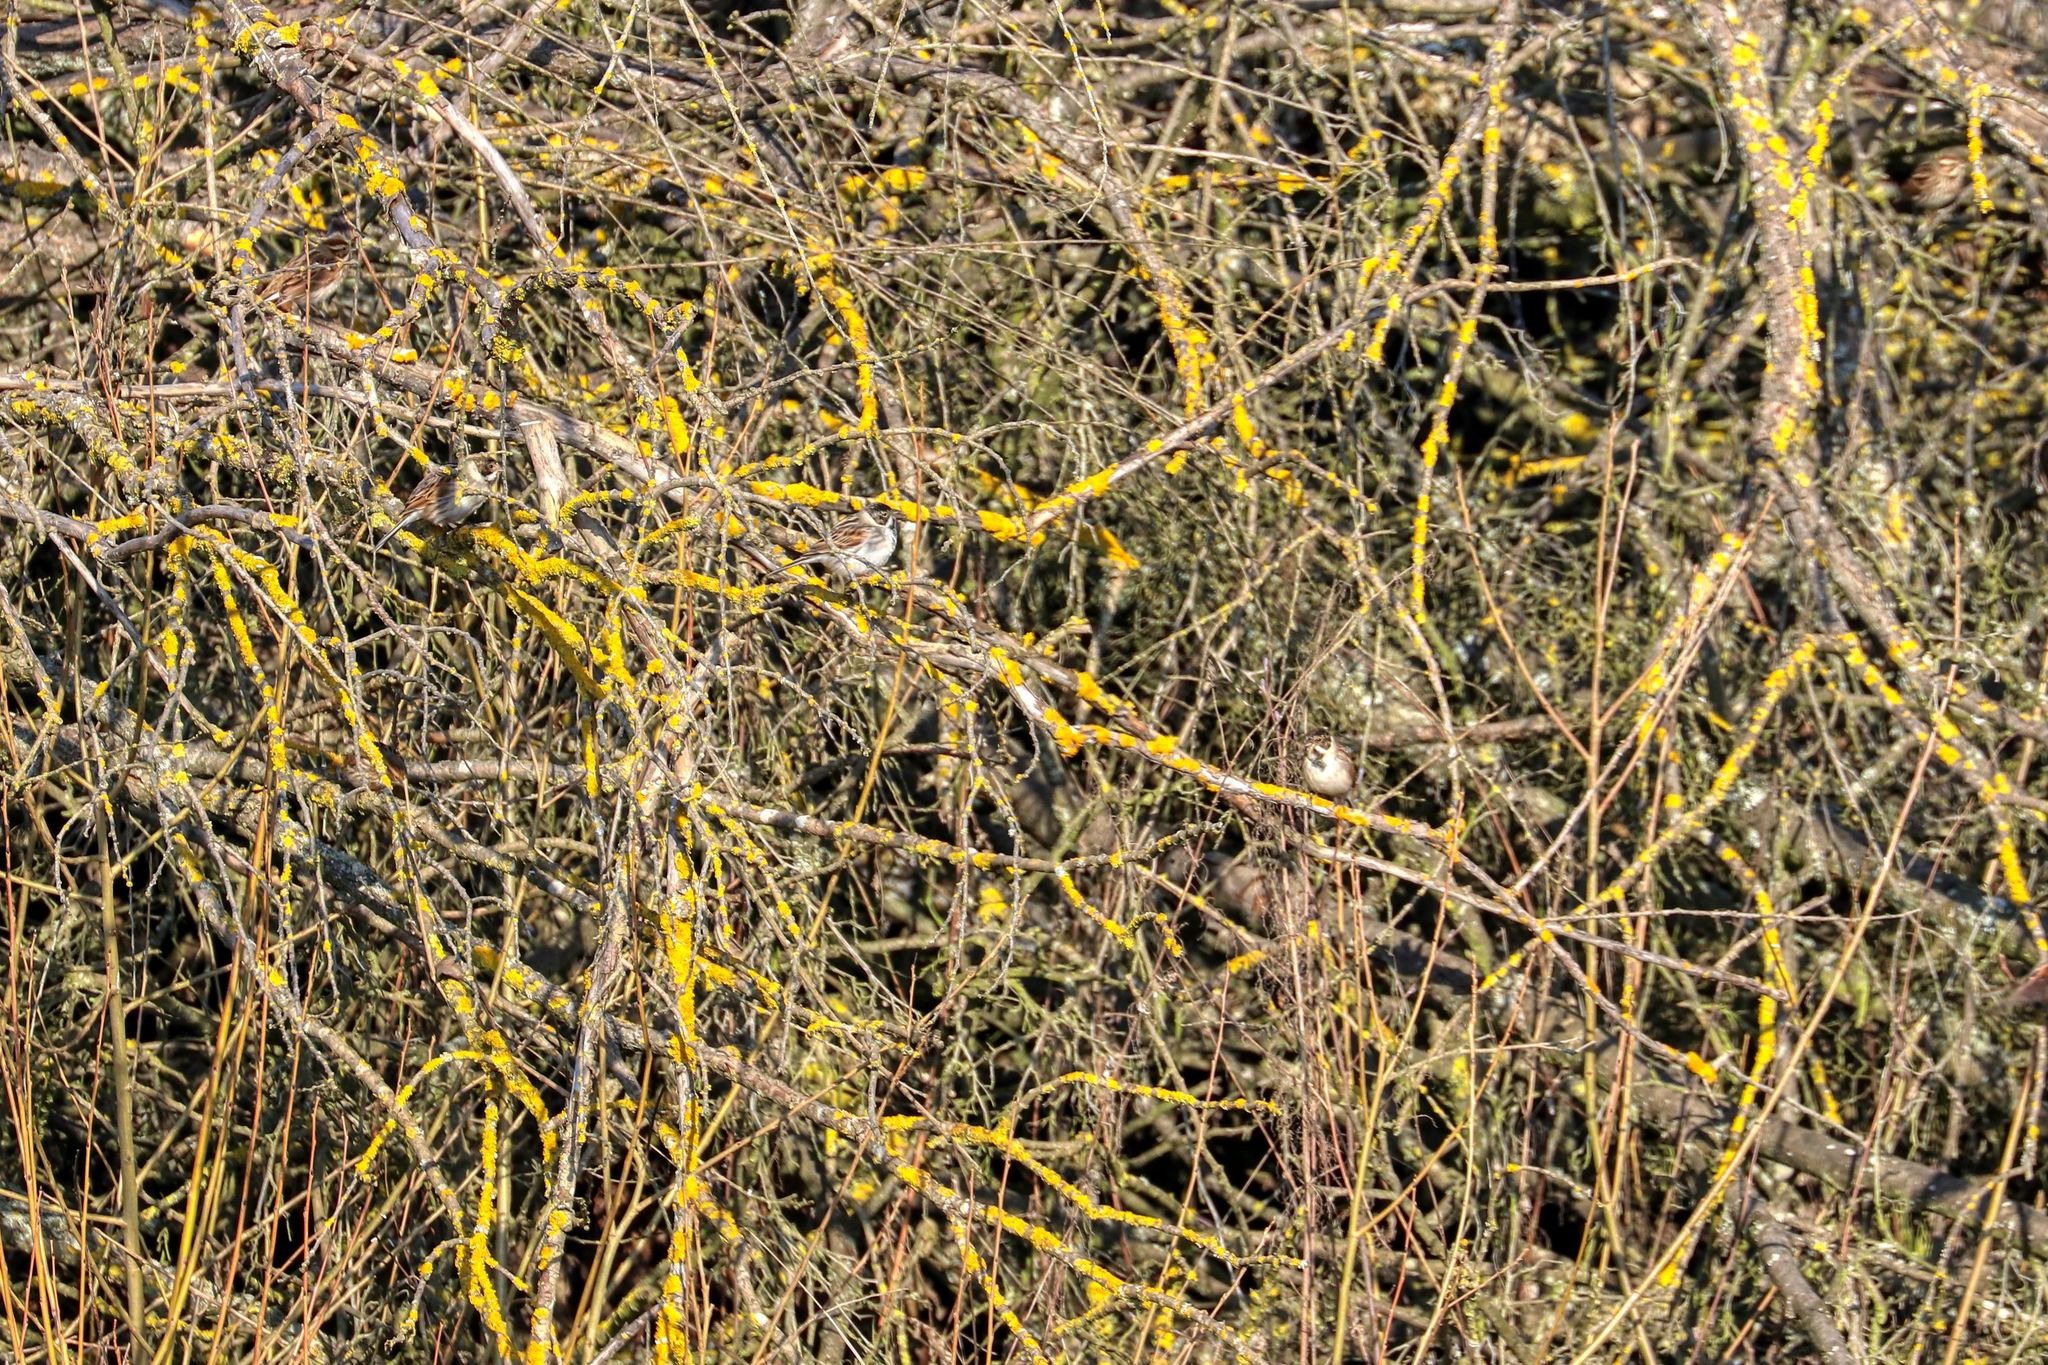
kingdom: Animalia
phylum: Chordata
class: Aves
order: Passeriformes
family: Emberizidae
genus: Emberiza
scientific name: Emberiza schoeniclus
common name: Reed bunting
